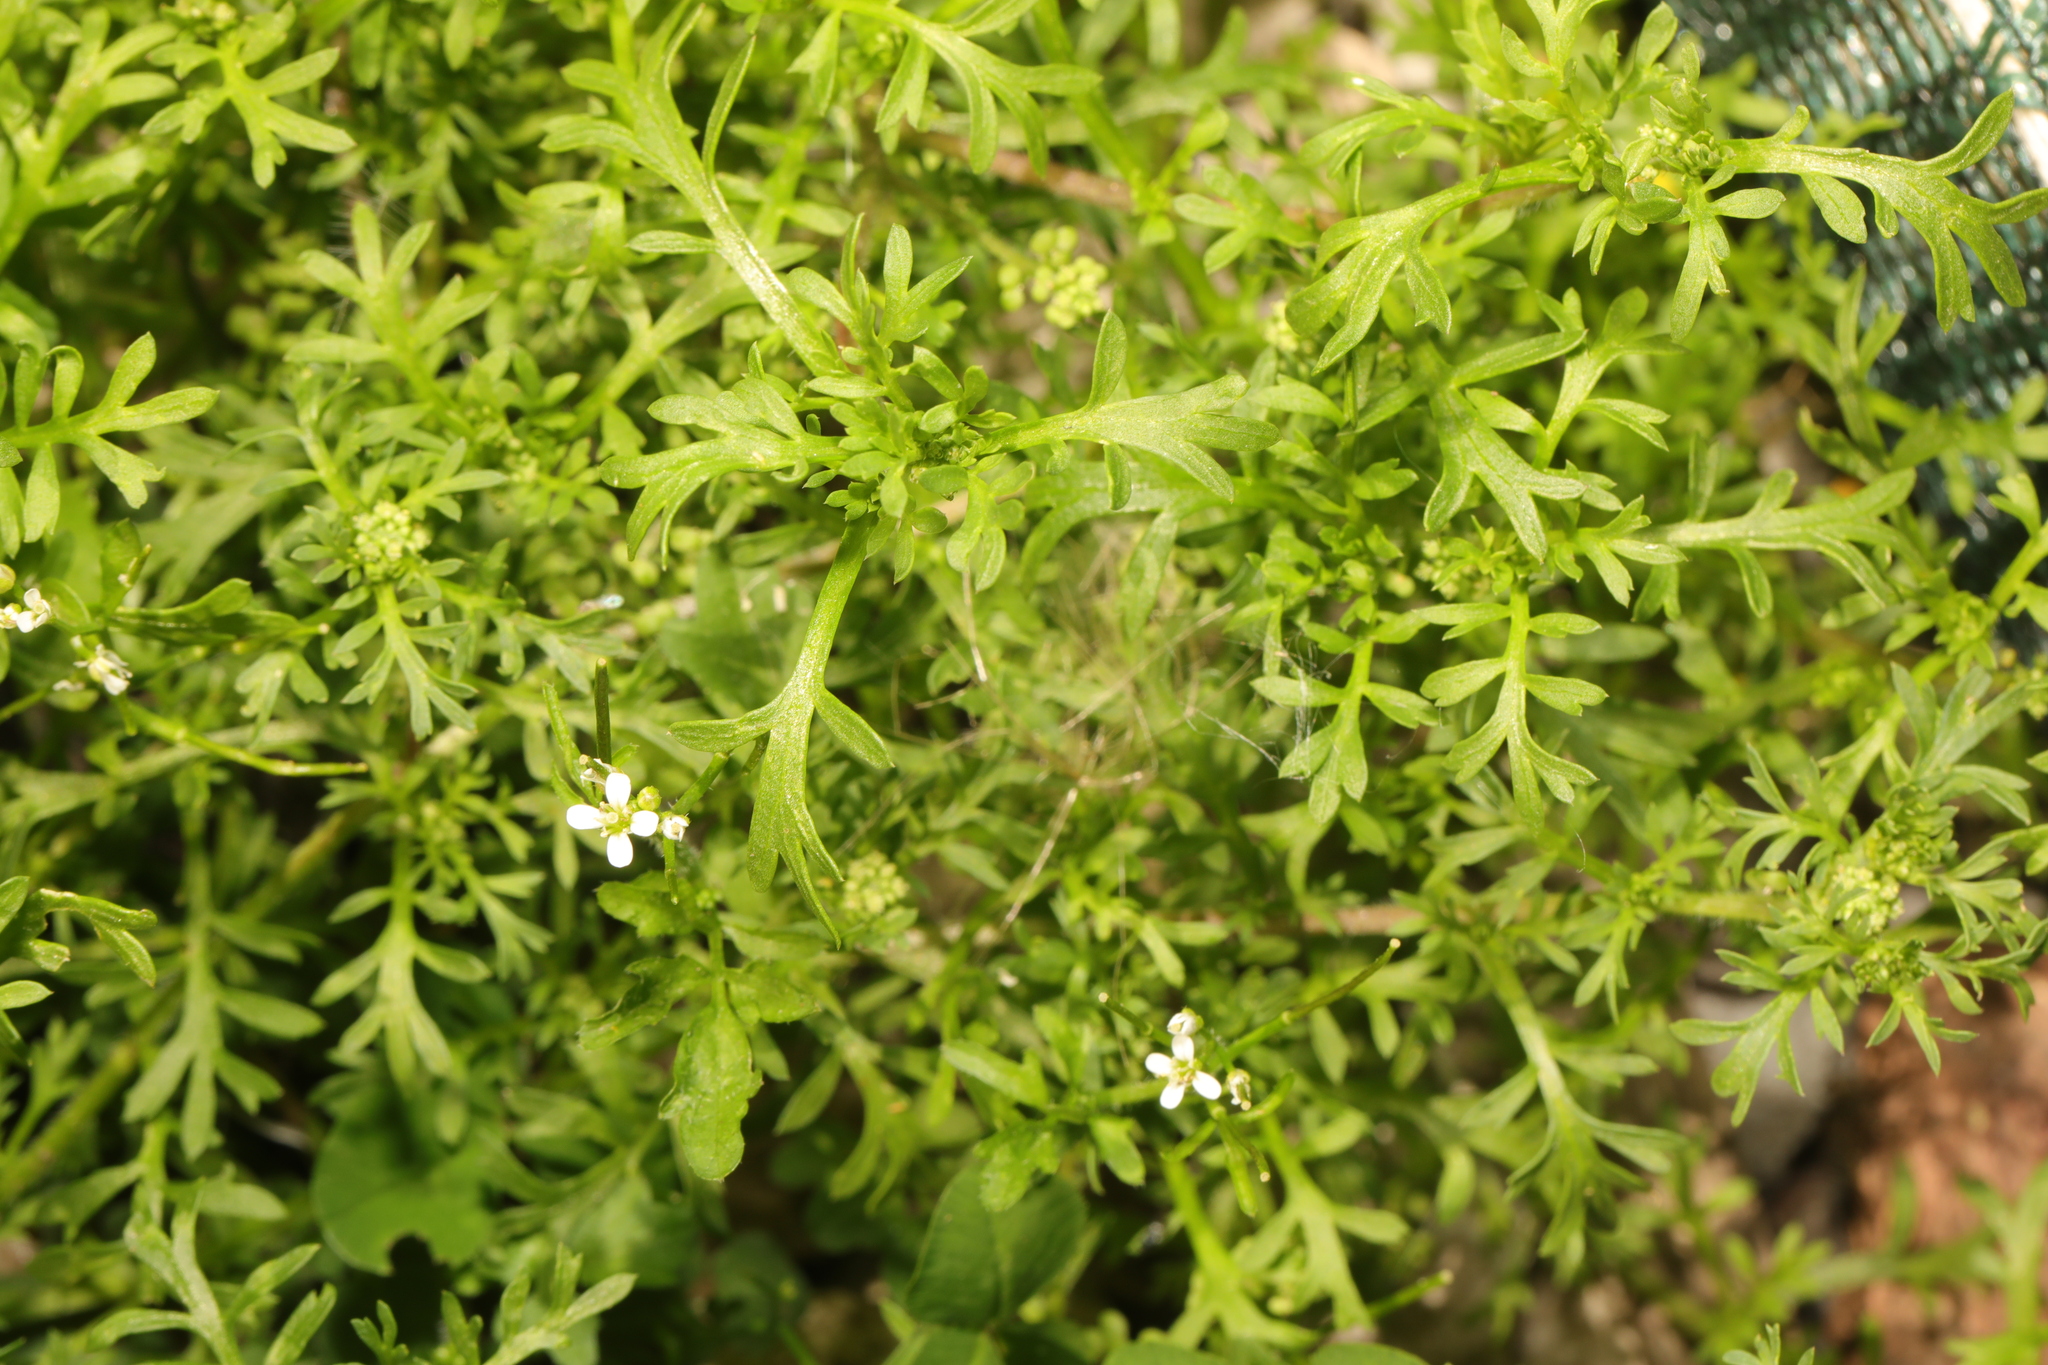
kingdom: Plantae
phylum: Tracheophyta
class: Magnoliopsida
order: Brassicales
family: Brassicaceae
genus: Lepidium
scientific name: Lepidium didymum
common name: Lesser swinecress
